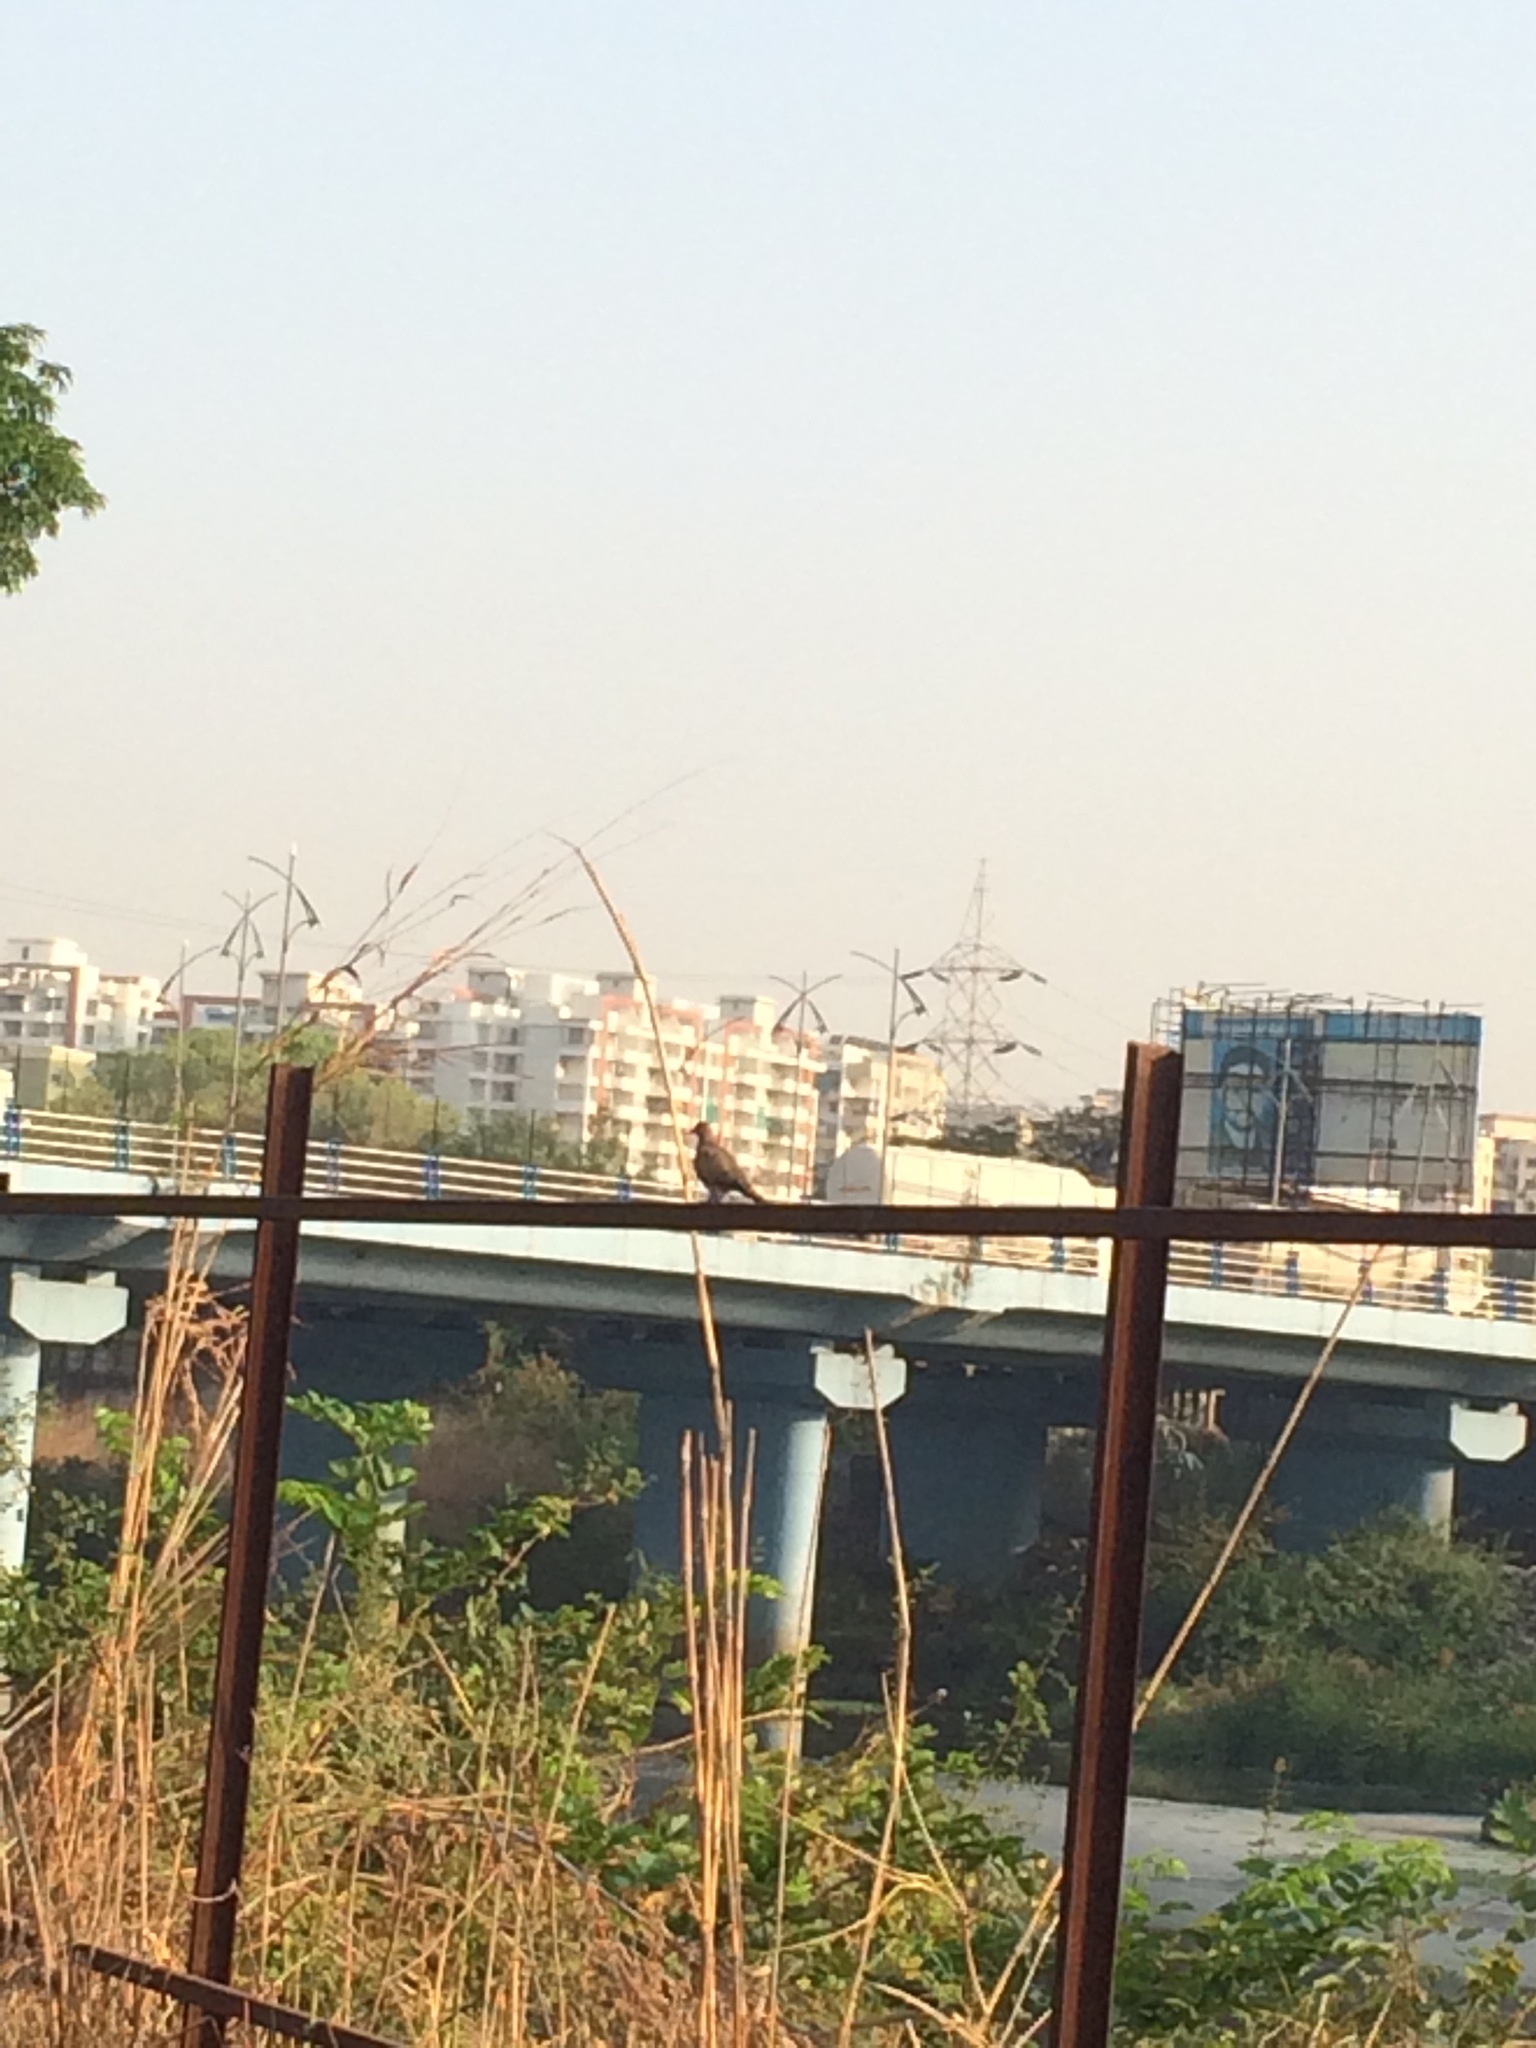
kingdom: Animalia
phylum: Chordata
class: Aves
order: Columbiformes
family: Columbidae
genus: Spilopelia
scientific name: Spilopelia senegalensis
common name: Laughing dove
